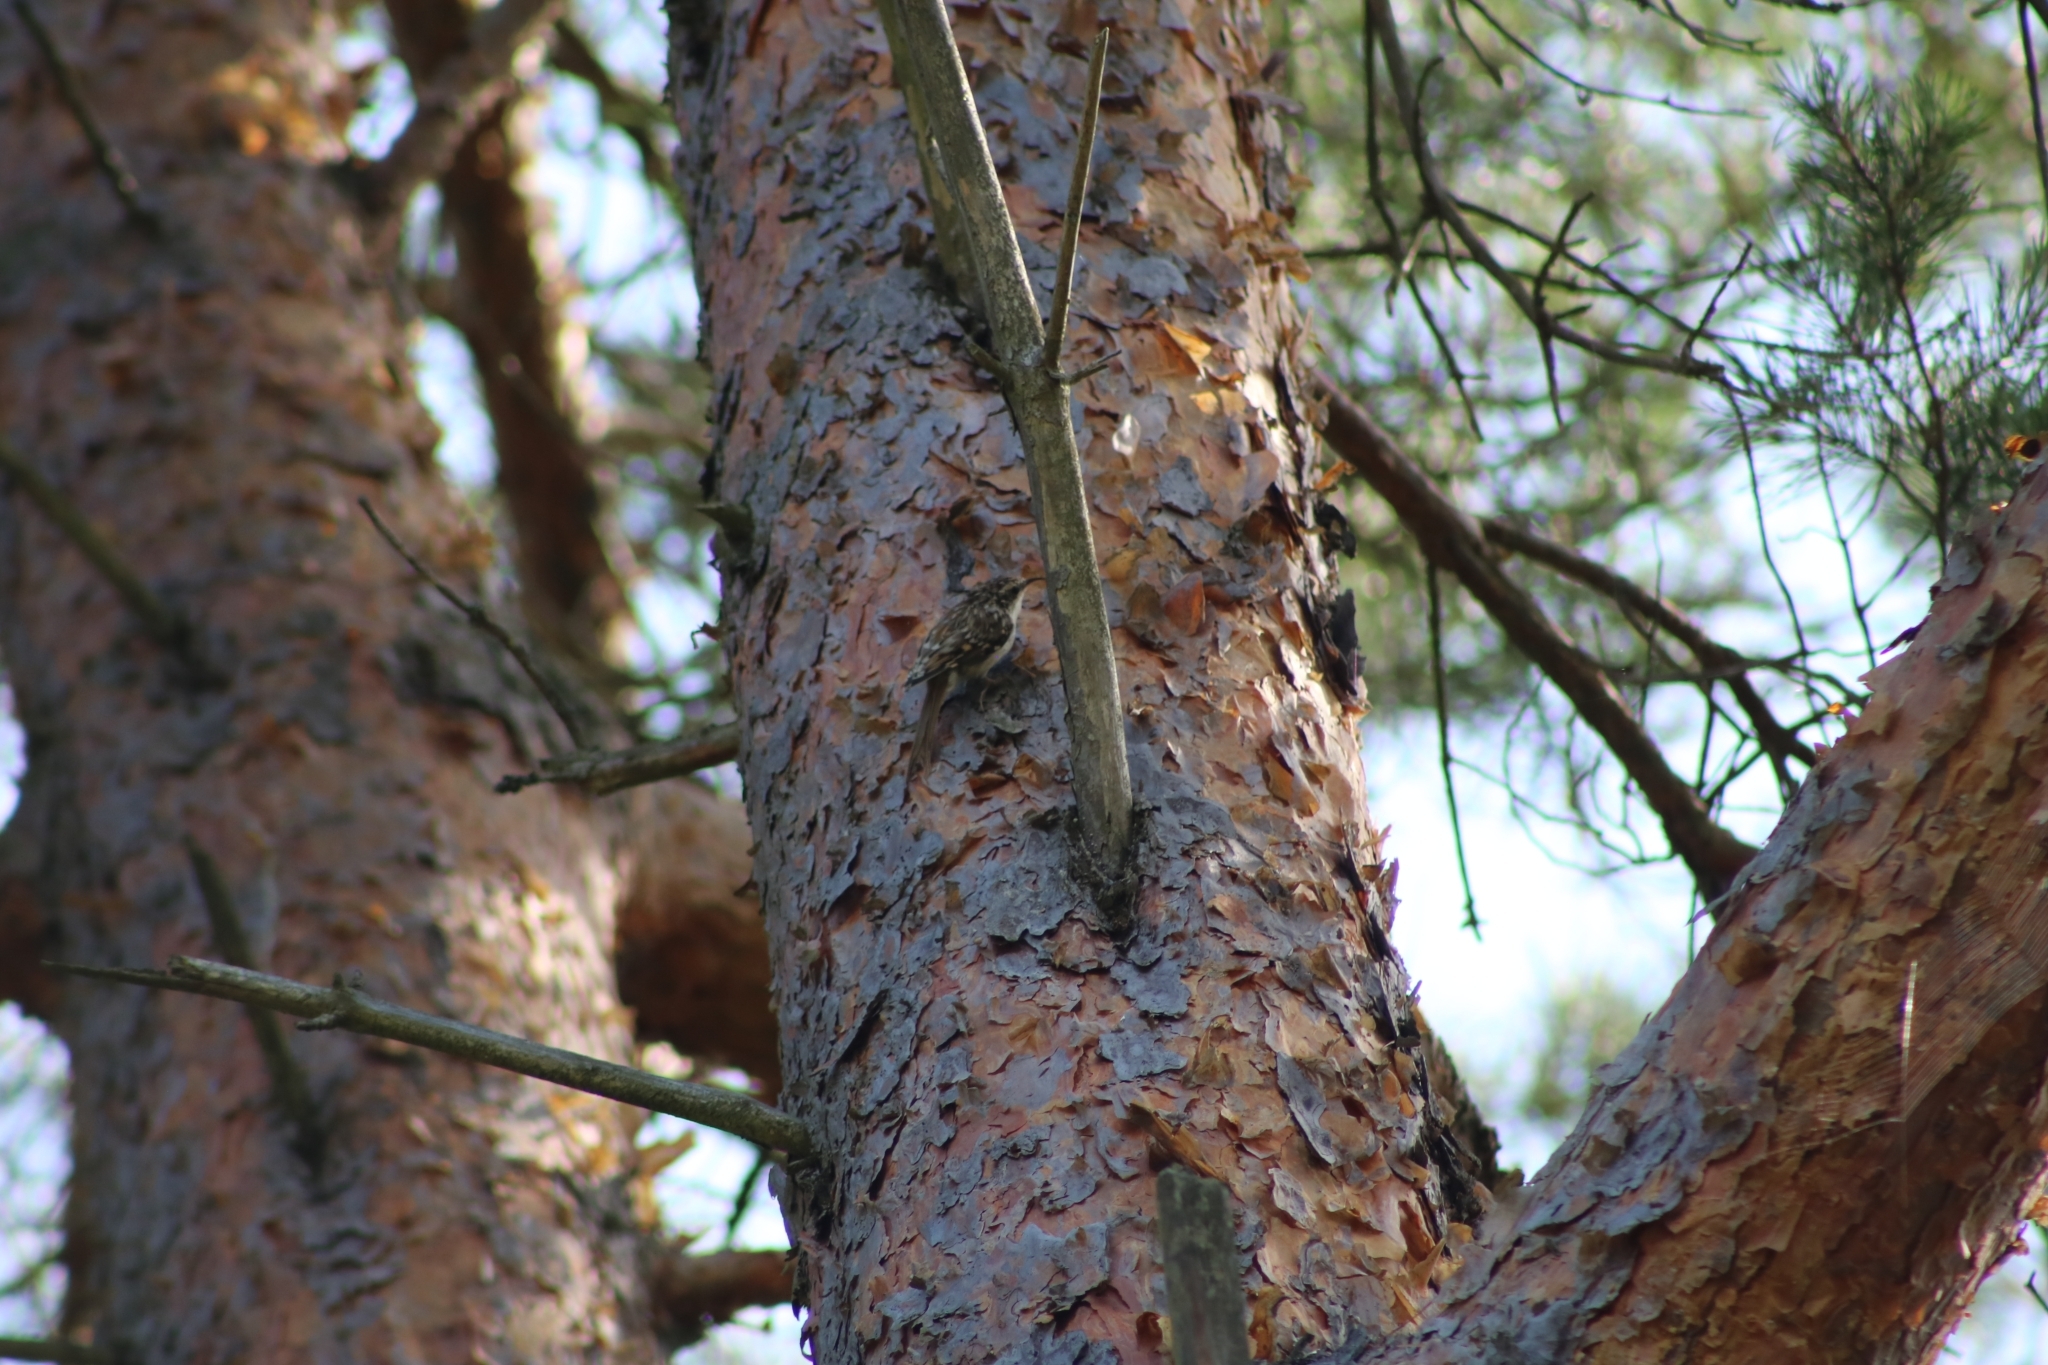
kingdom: Animalia
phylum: Chordata
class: Aves
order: Passeriformes
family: Certhiidae
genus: Certhia
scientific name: Certhia familiaris
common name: Eurasian treecreeper
